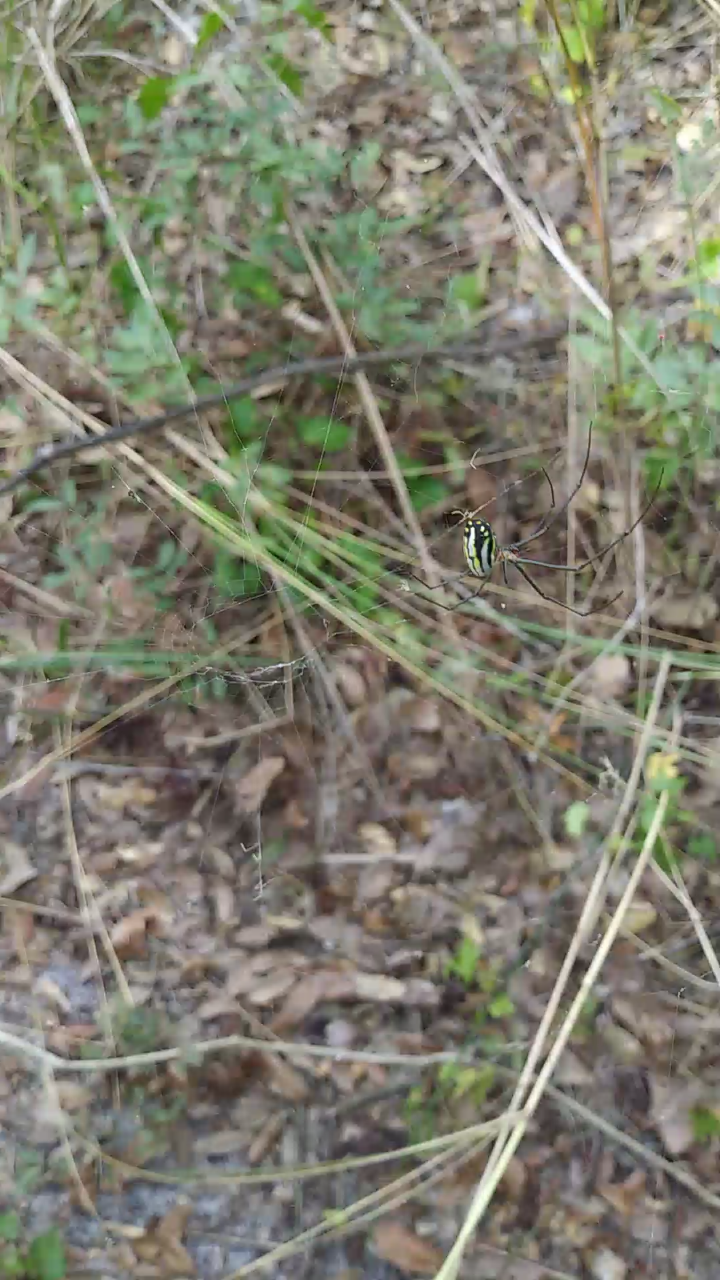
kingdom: Animalia
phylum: Arthropoda
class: Arachnida
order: Araneae
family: Tetragnathidae
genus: Leucauge
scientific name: Leucauge argyra
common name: Longjawed orb weavers
